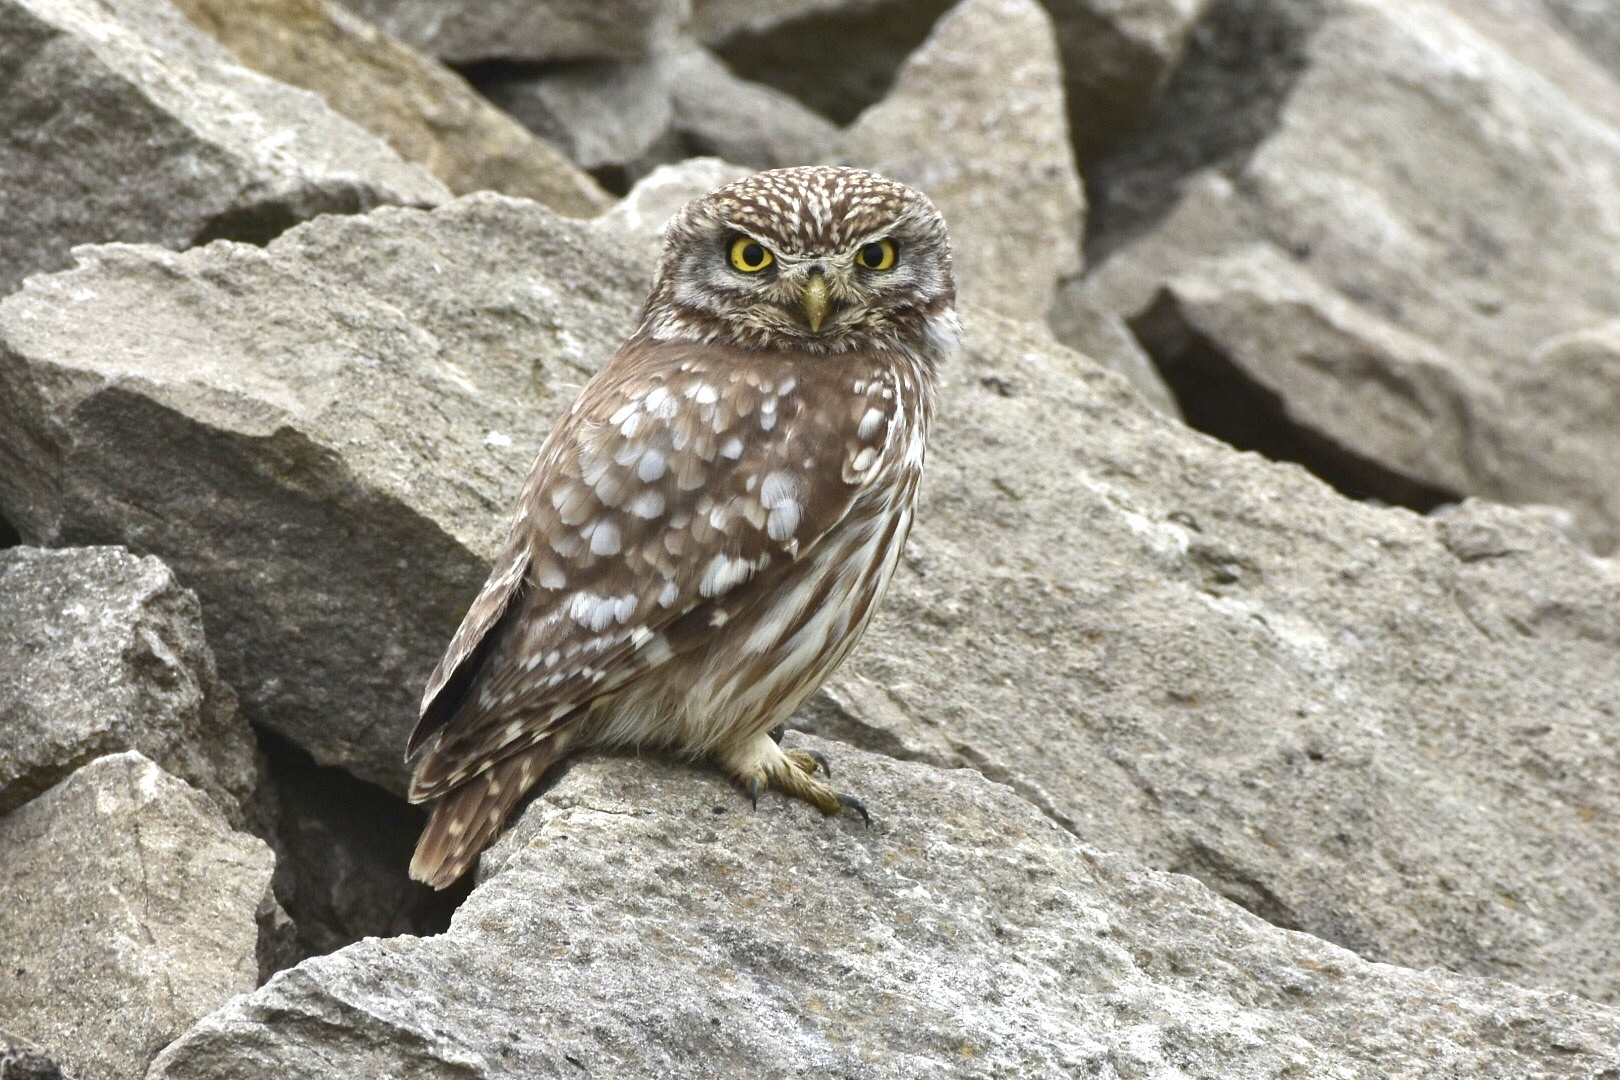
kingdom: Animalia
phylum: Chordata
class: Aves
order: Strigiformes
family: Strigidae
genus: Athene
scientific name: Athene noctua
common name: Little owl
